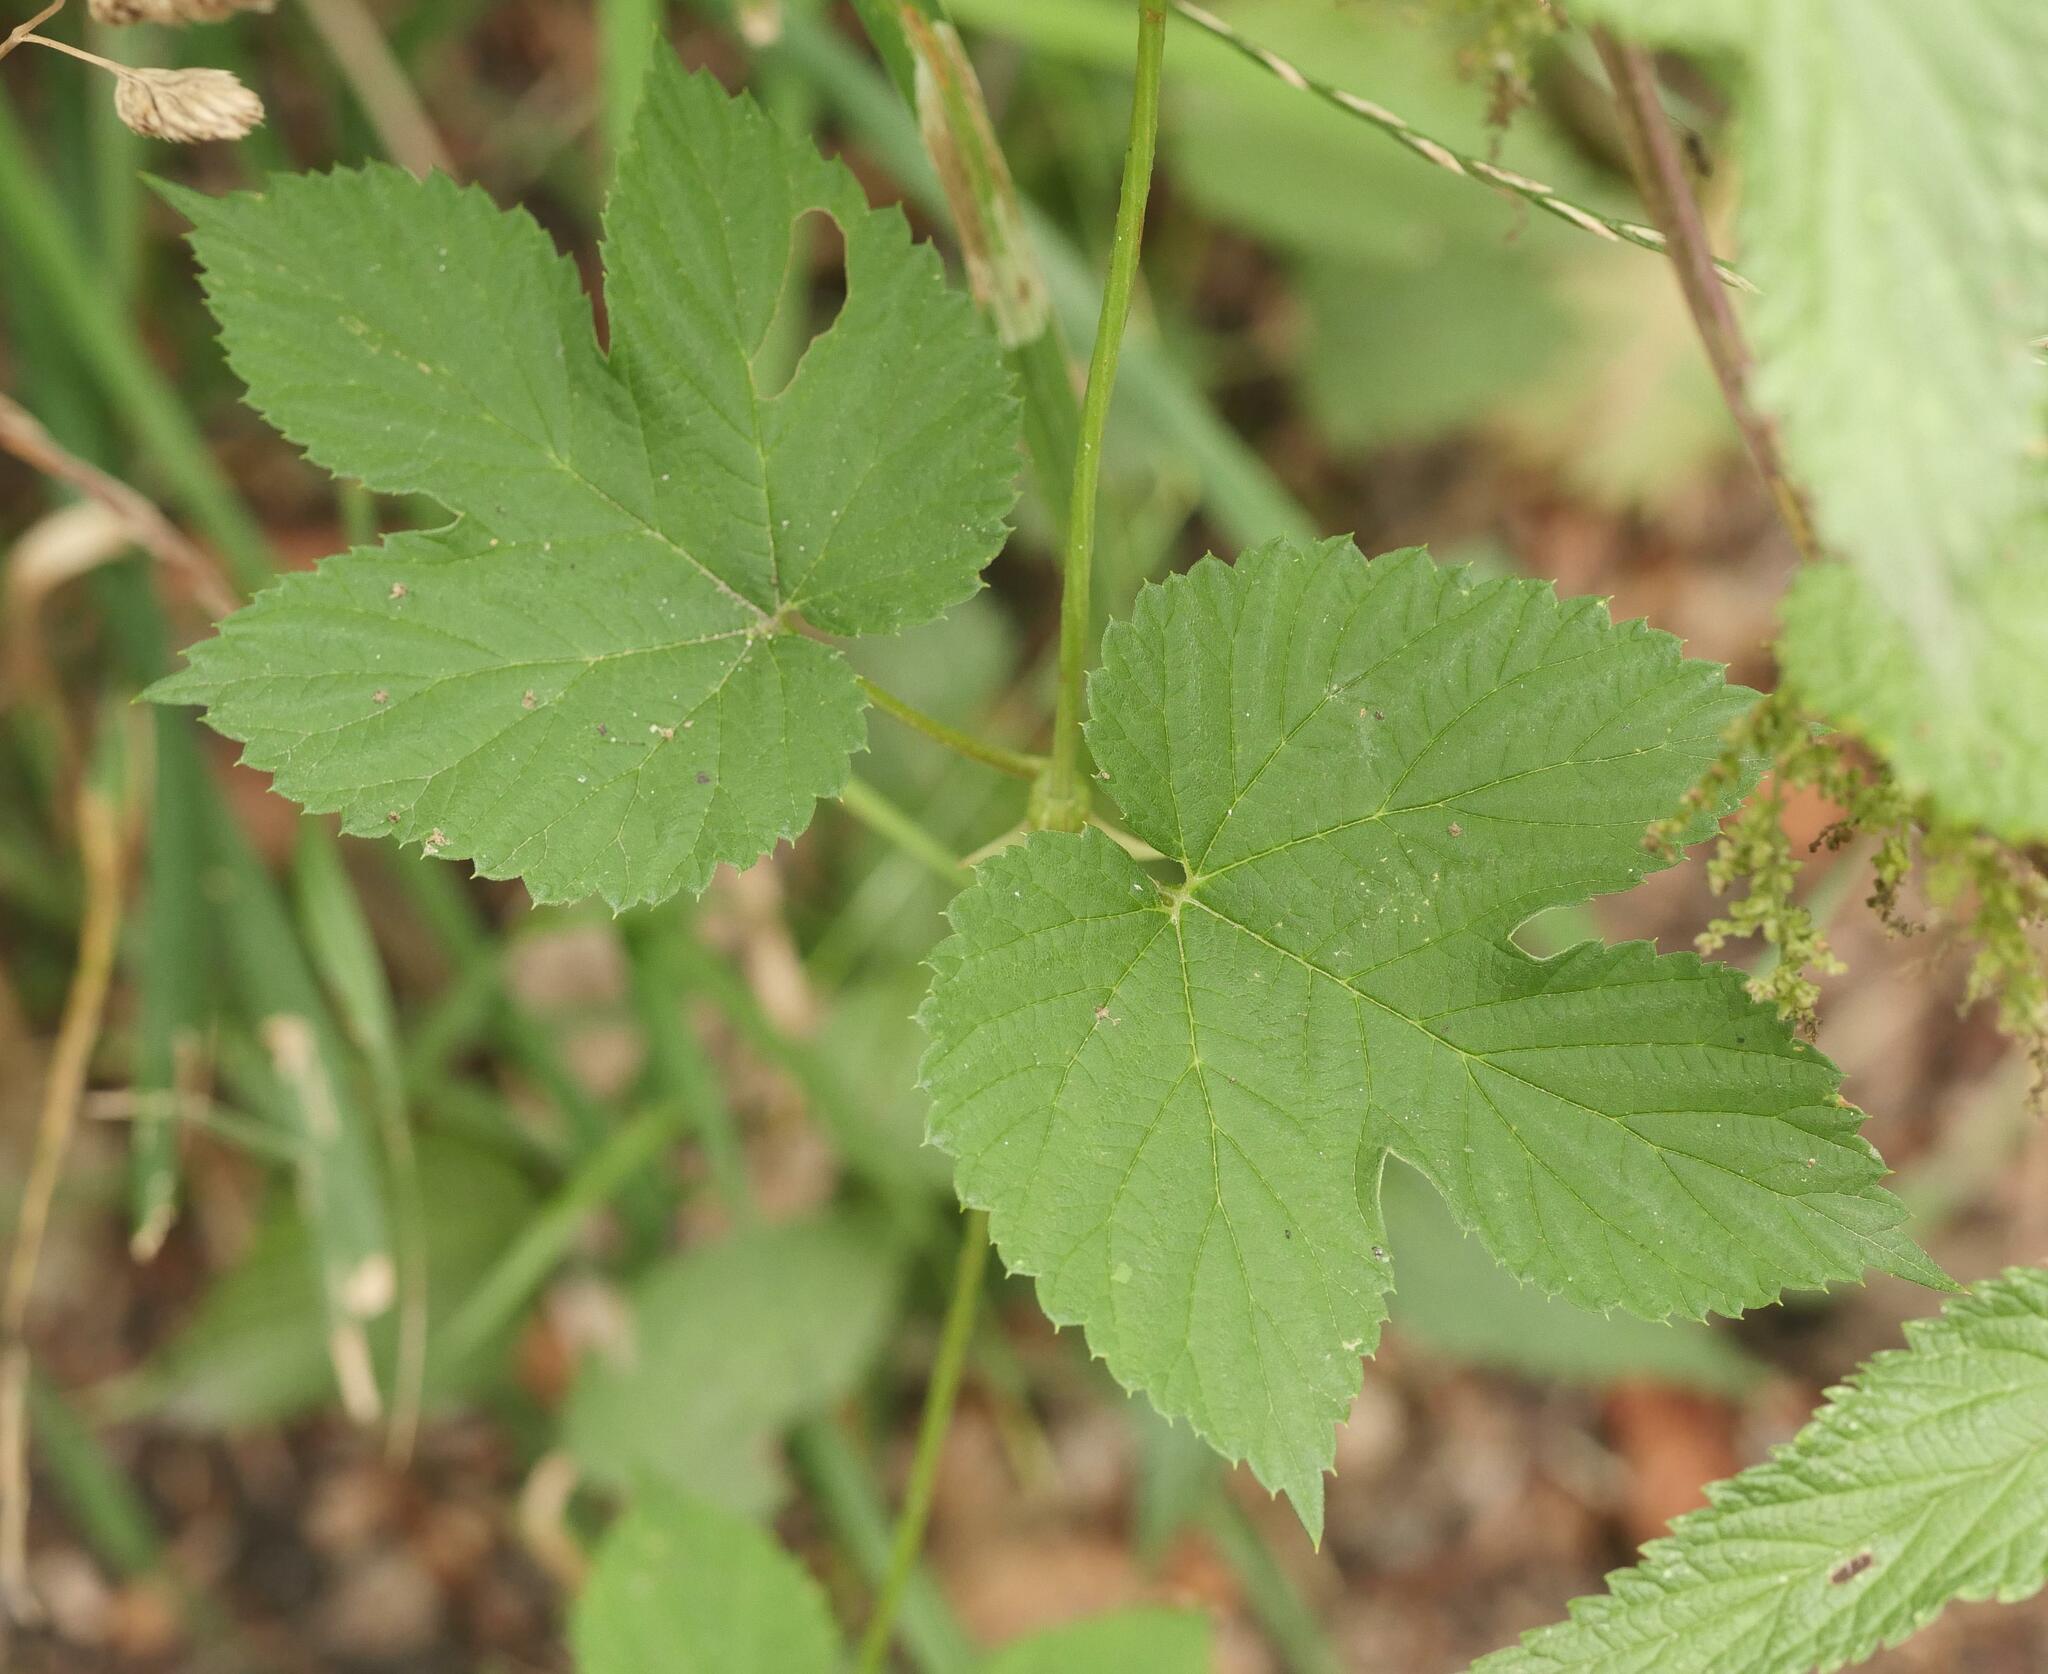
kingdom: Plantae
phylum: Tracheophyta
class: Magnoliopsida
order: Rosales
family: Cannabaceae
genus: Humulus
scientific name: Humulus lupulus
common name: Hop
